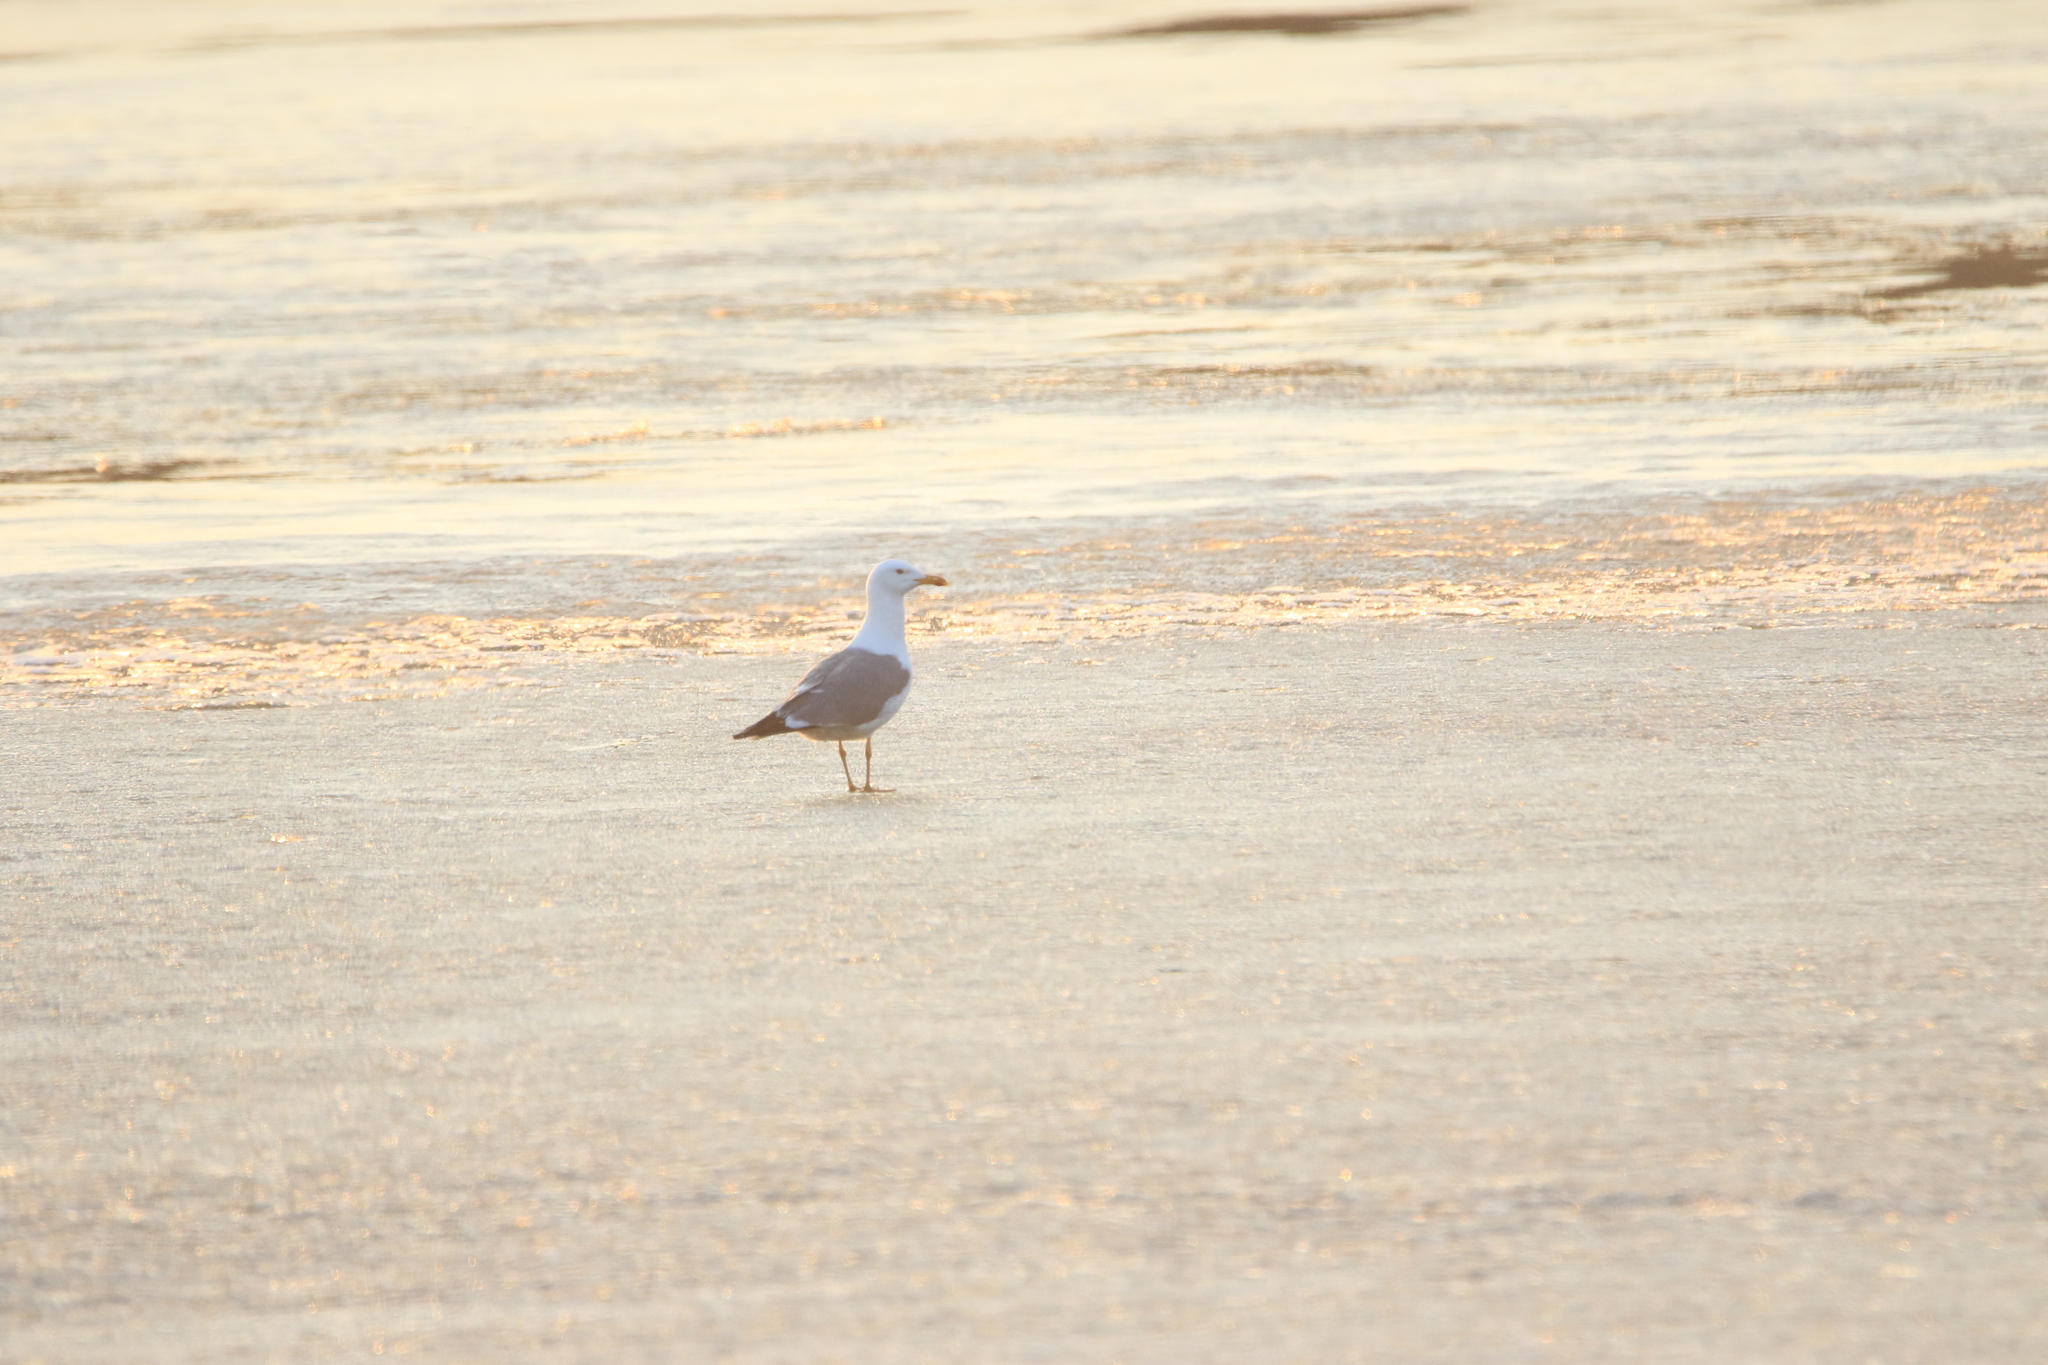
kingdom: Animalia
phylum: Chordata
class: Aves
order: Charadriiformes
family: Laridae
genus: Larus
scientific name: Larus fuscus
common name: Lesser black-backed gull
